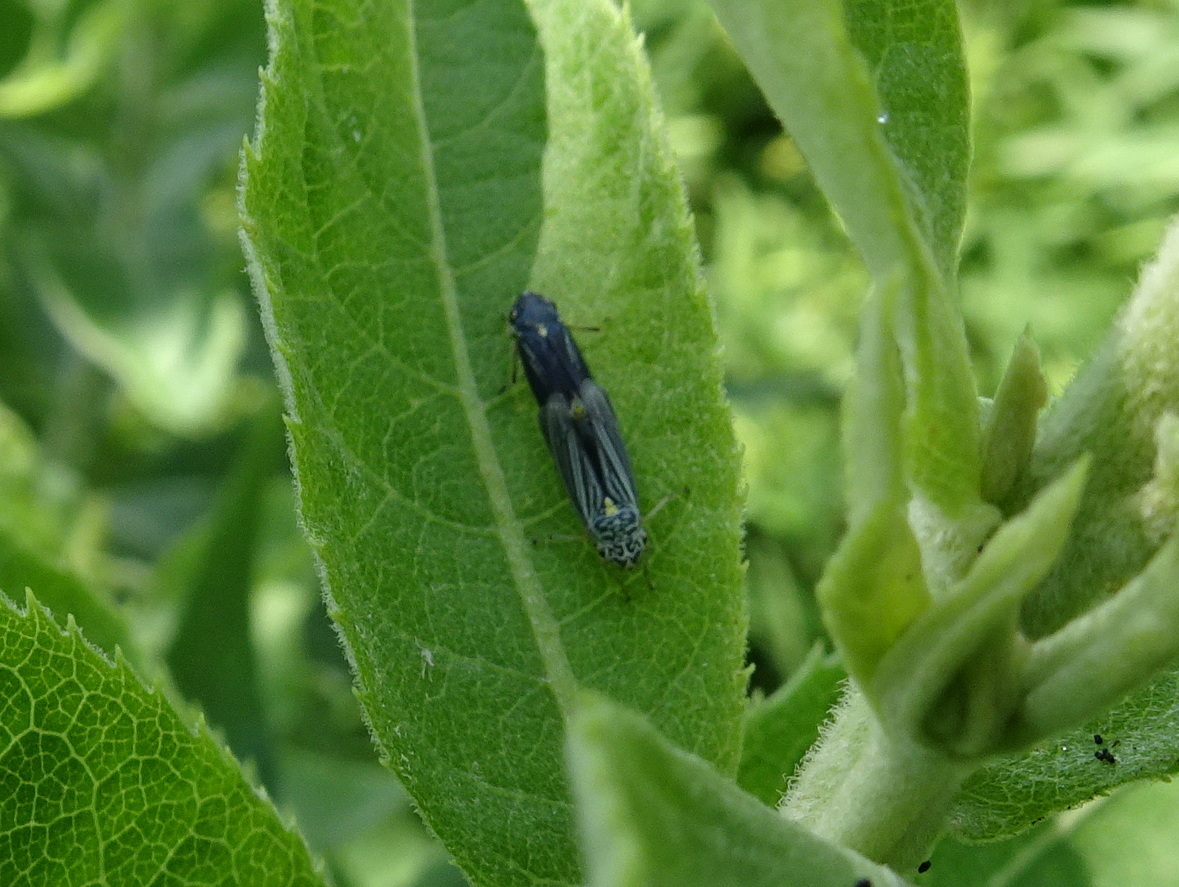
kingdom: Animalia
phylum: Arthropoda
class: Insecta
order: Hemiptera
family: Cicadellidae
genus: Neokolla
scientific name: Neokolla hieroglyphica
